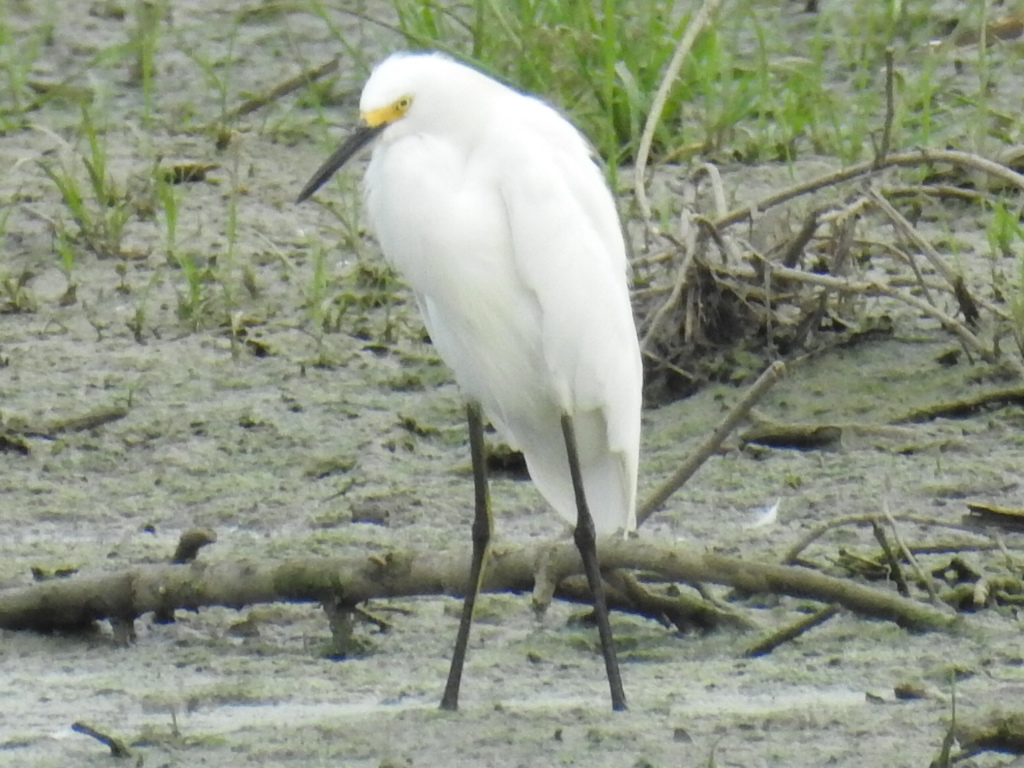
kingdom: Animalia
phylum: Chordata
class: Aves
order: Pelecaniformes
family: Ardeidae
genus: Egretta
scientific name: Egretta thula
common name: Snowy egret
